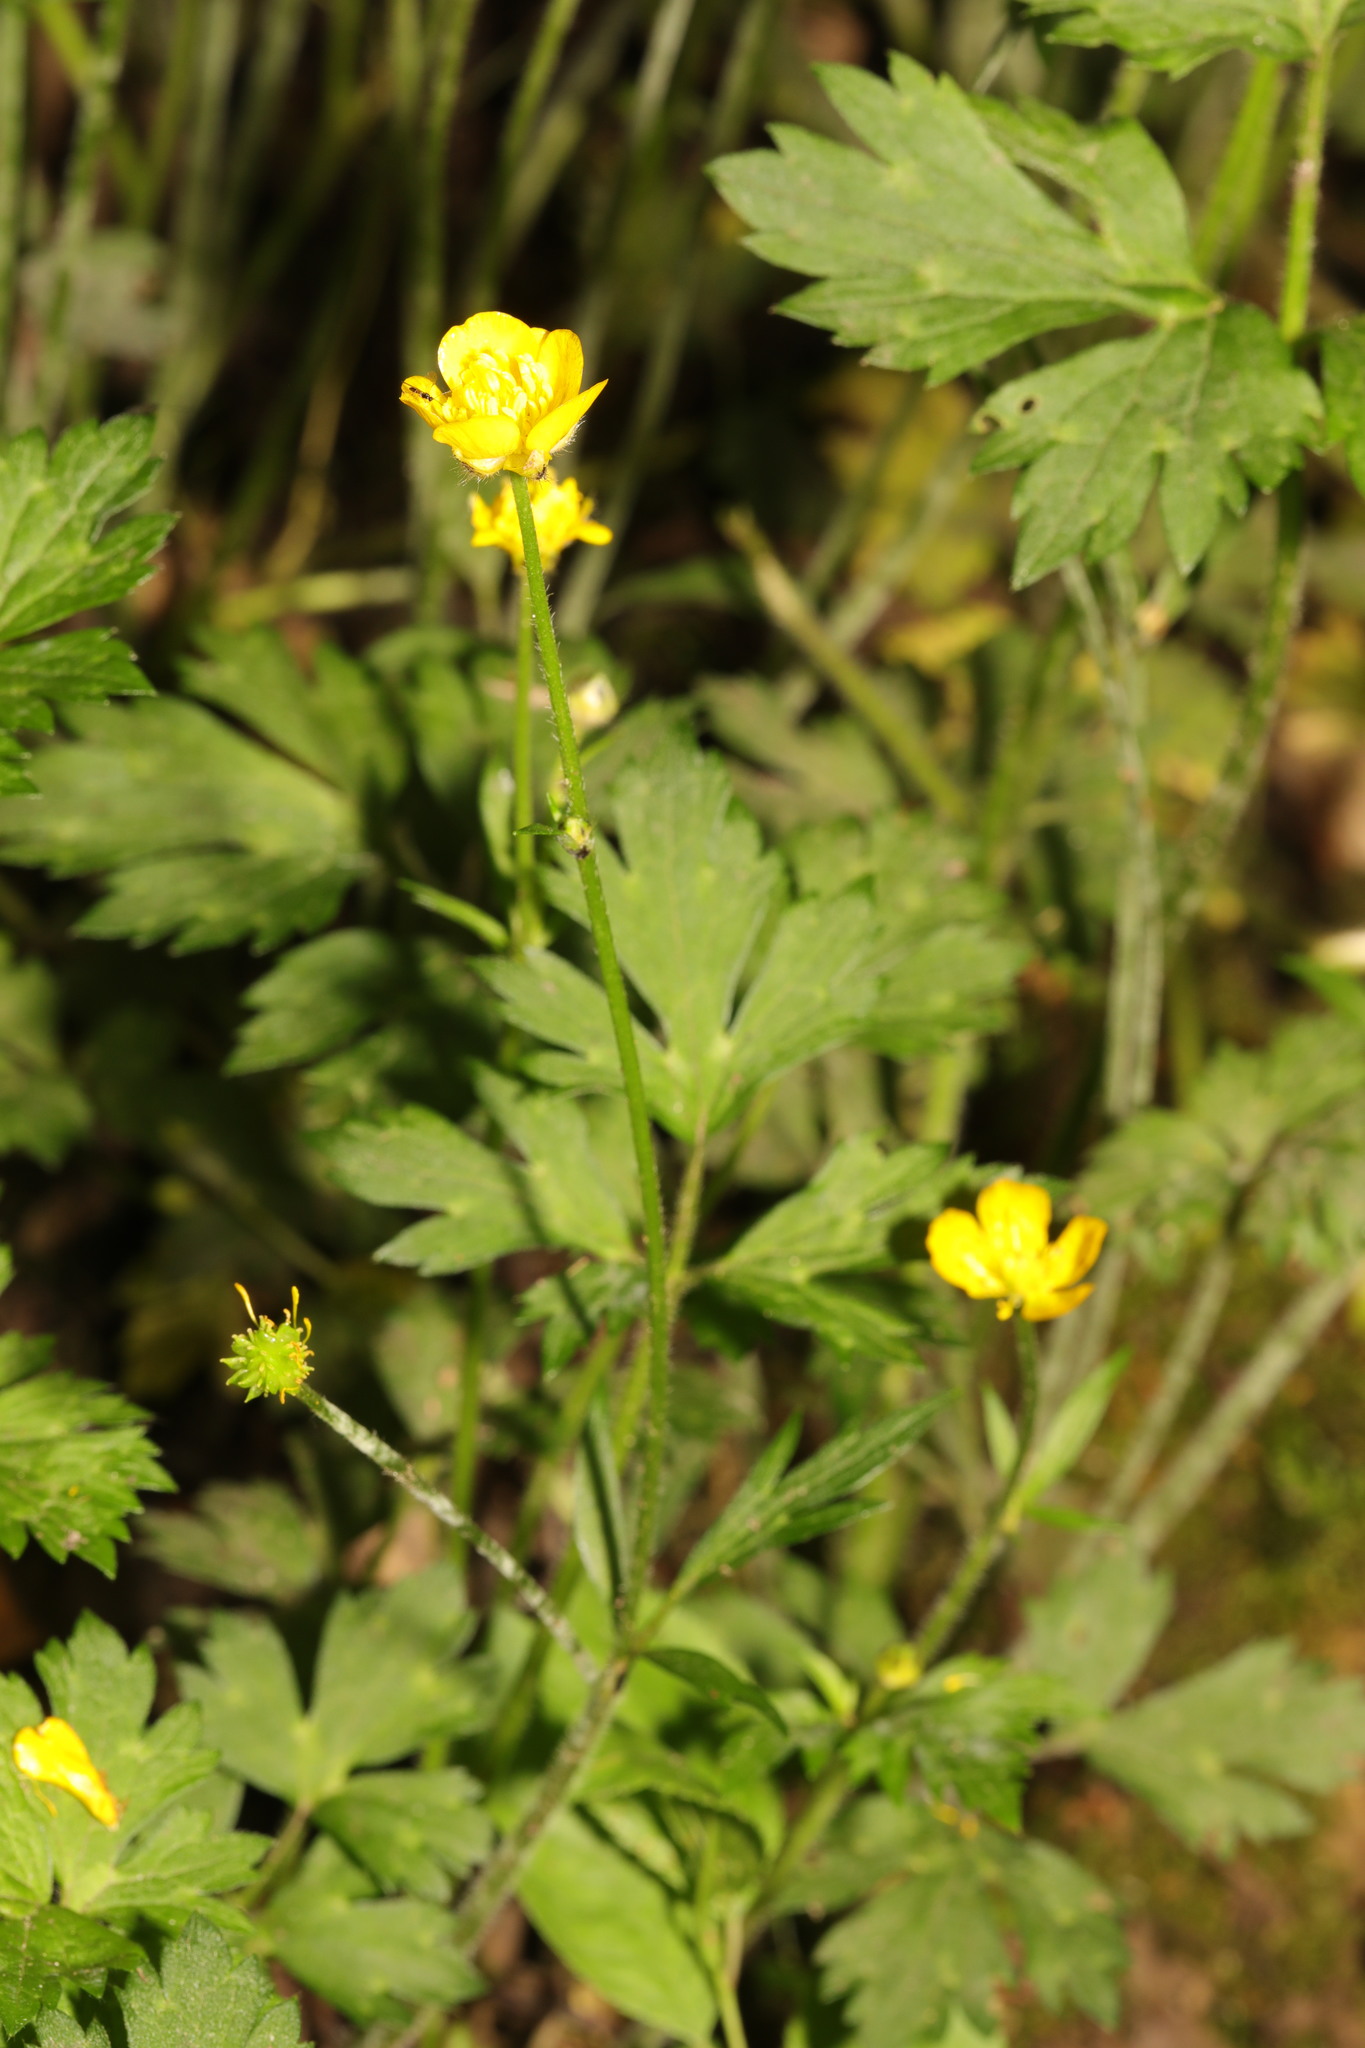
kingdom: Plantae
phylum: Tracheophyta
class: Magnoliopsida
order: Ranunculales
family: Ranunculaceae
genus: Ranunculus
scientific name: Ranunculus repens
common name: Creeping buttercup
